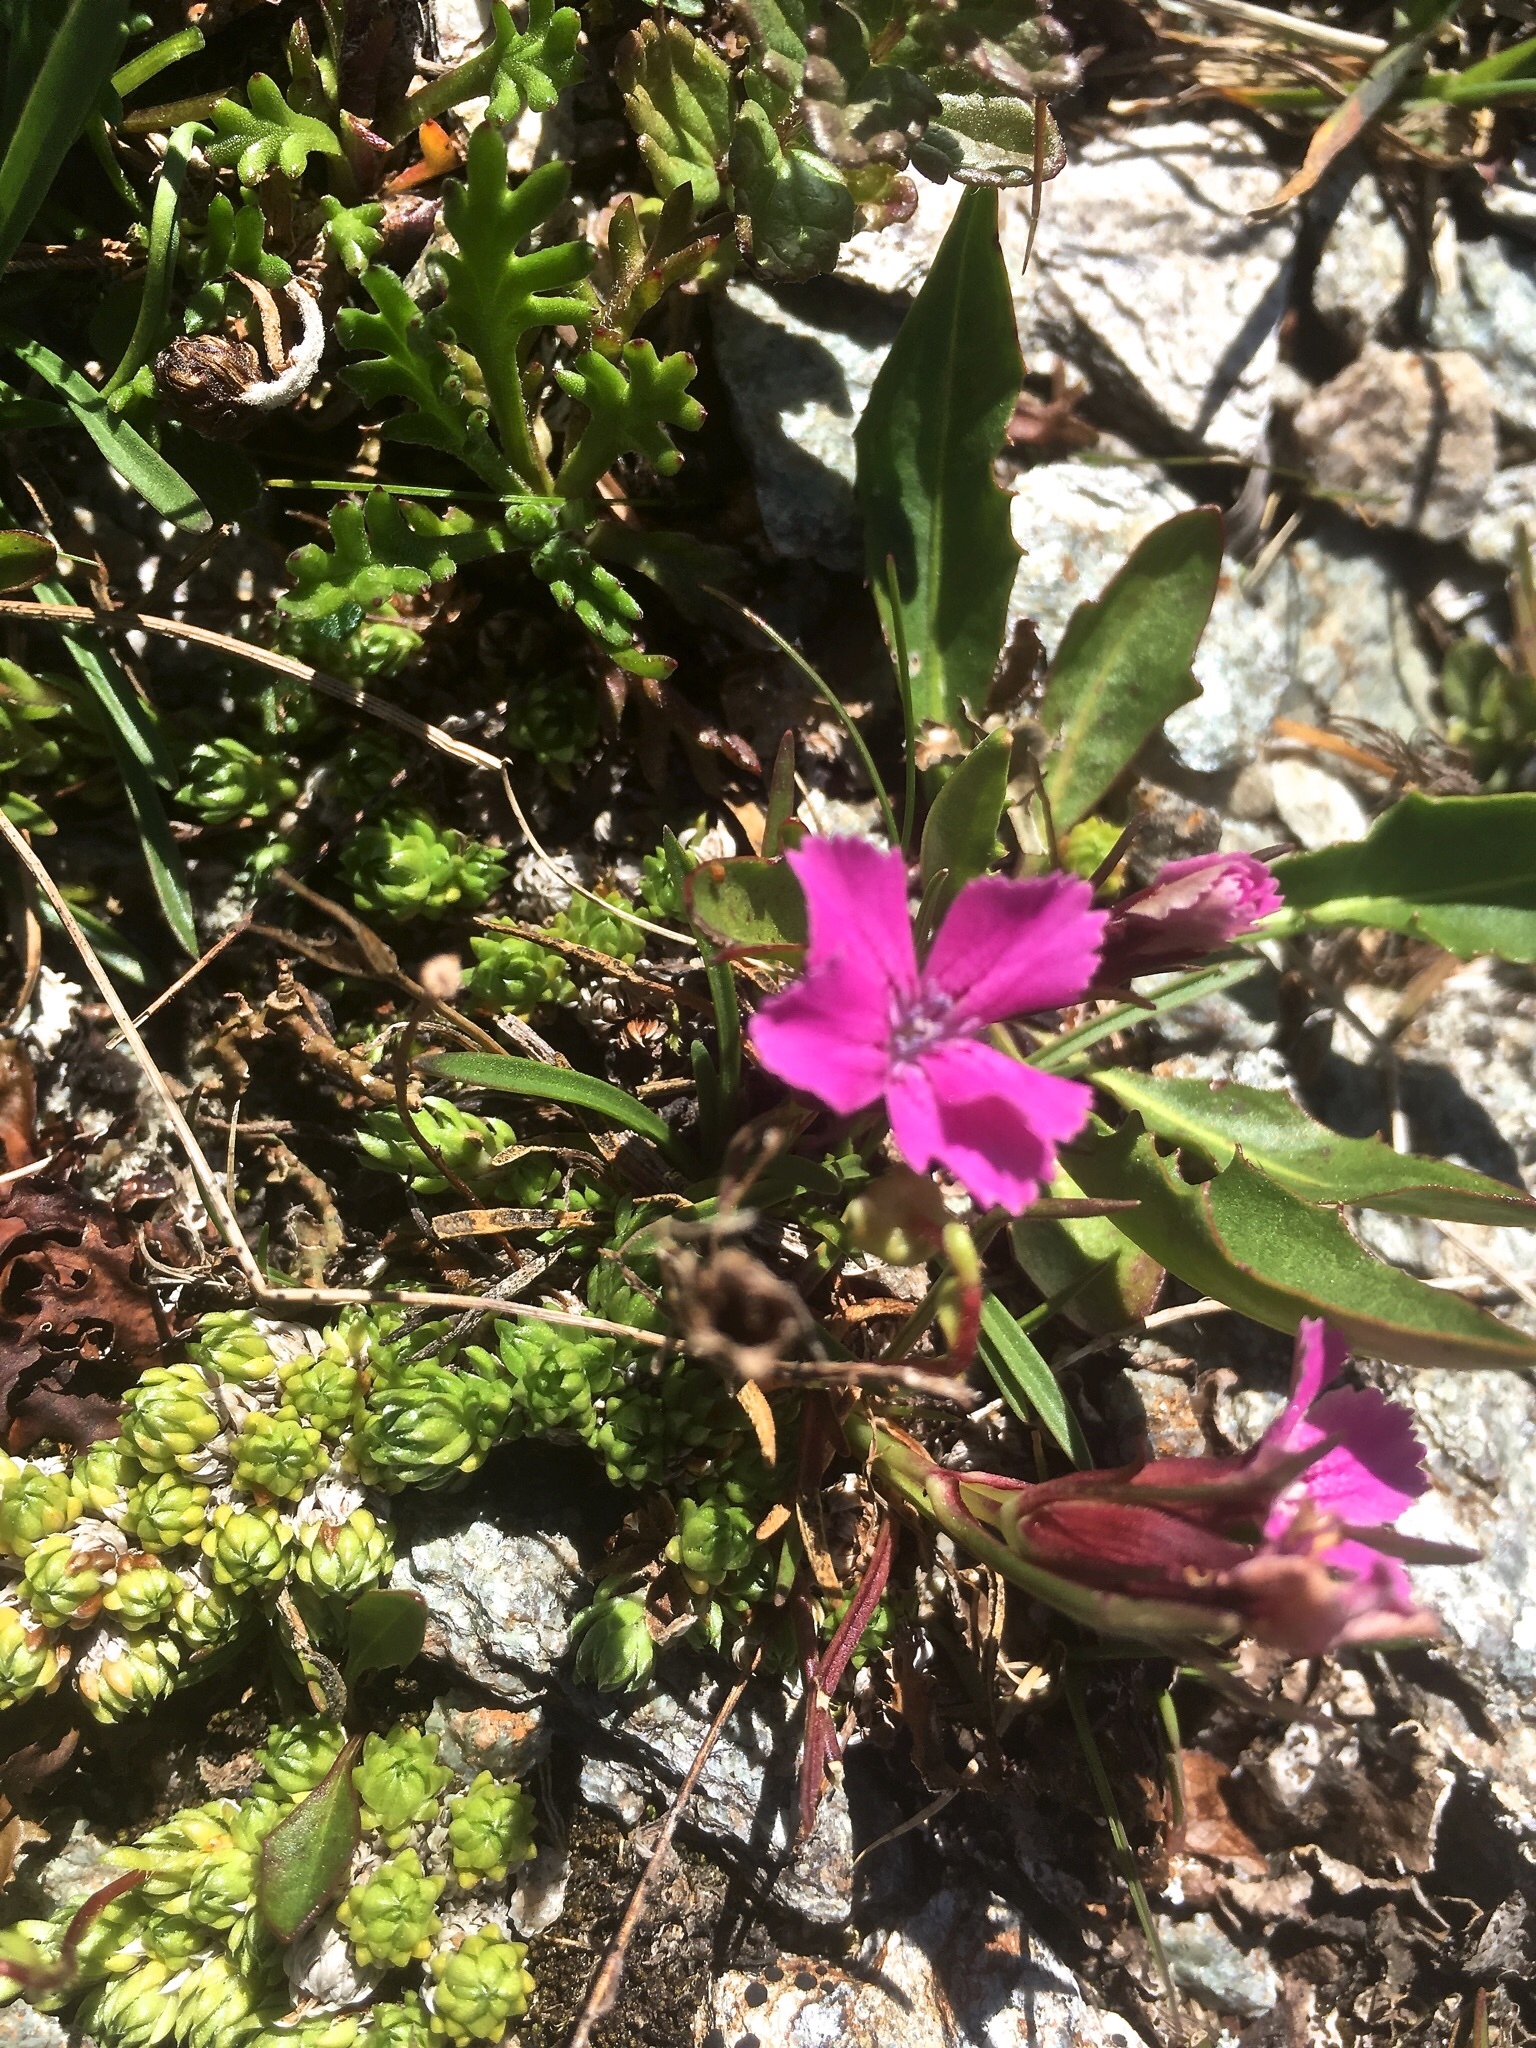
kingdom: Plantae
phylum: Tracheophyta
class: Magnoliopsida
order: Caryophyllales
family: Caryophyllaceae
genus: Dianthus
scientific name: Dianthus glacialis
